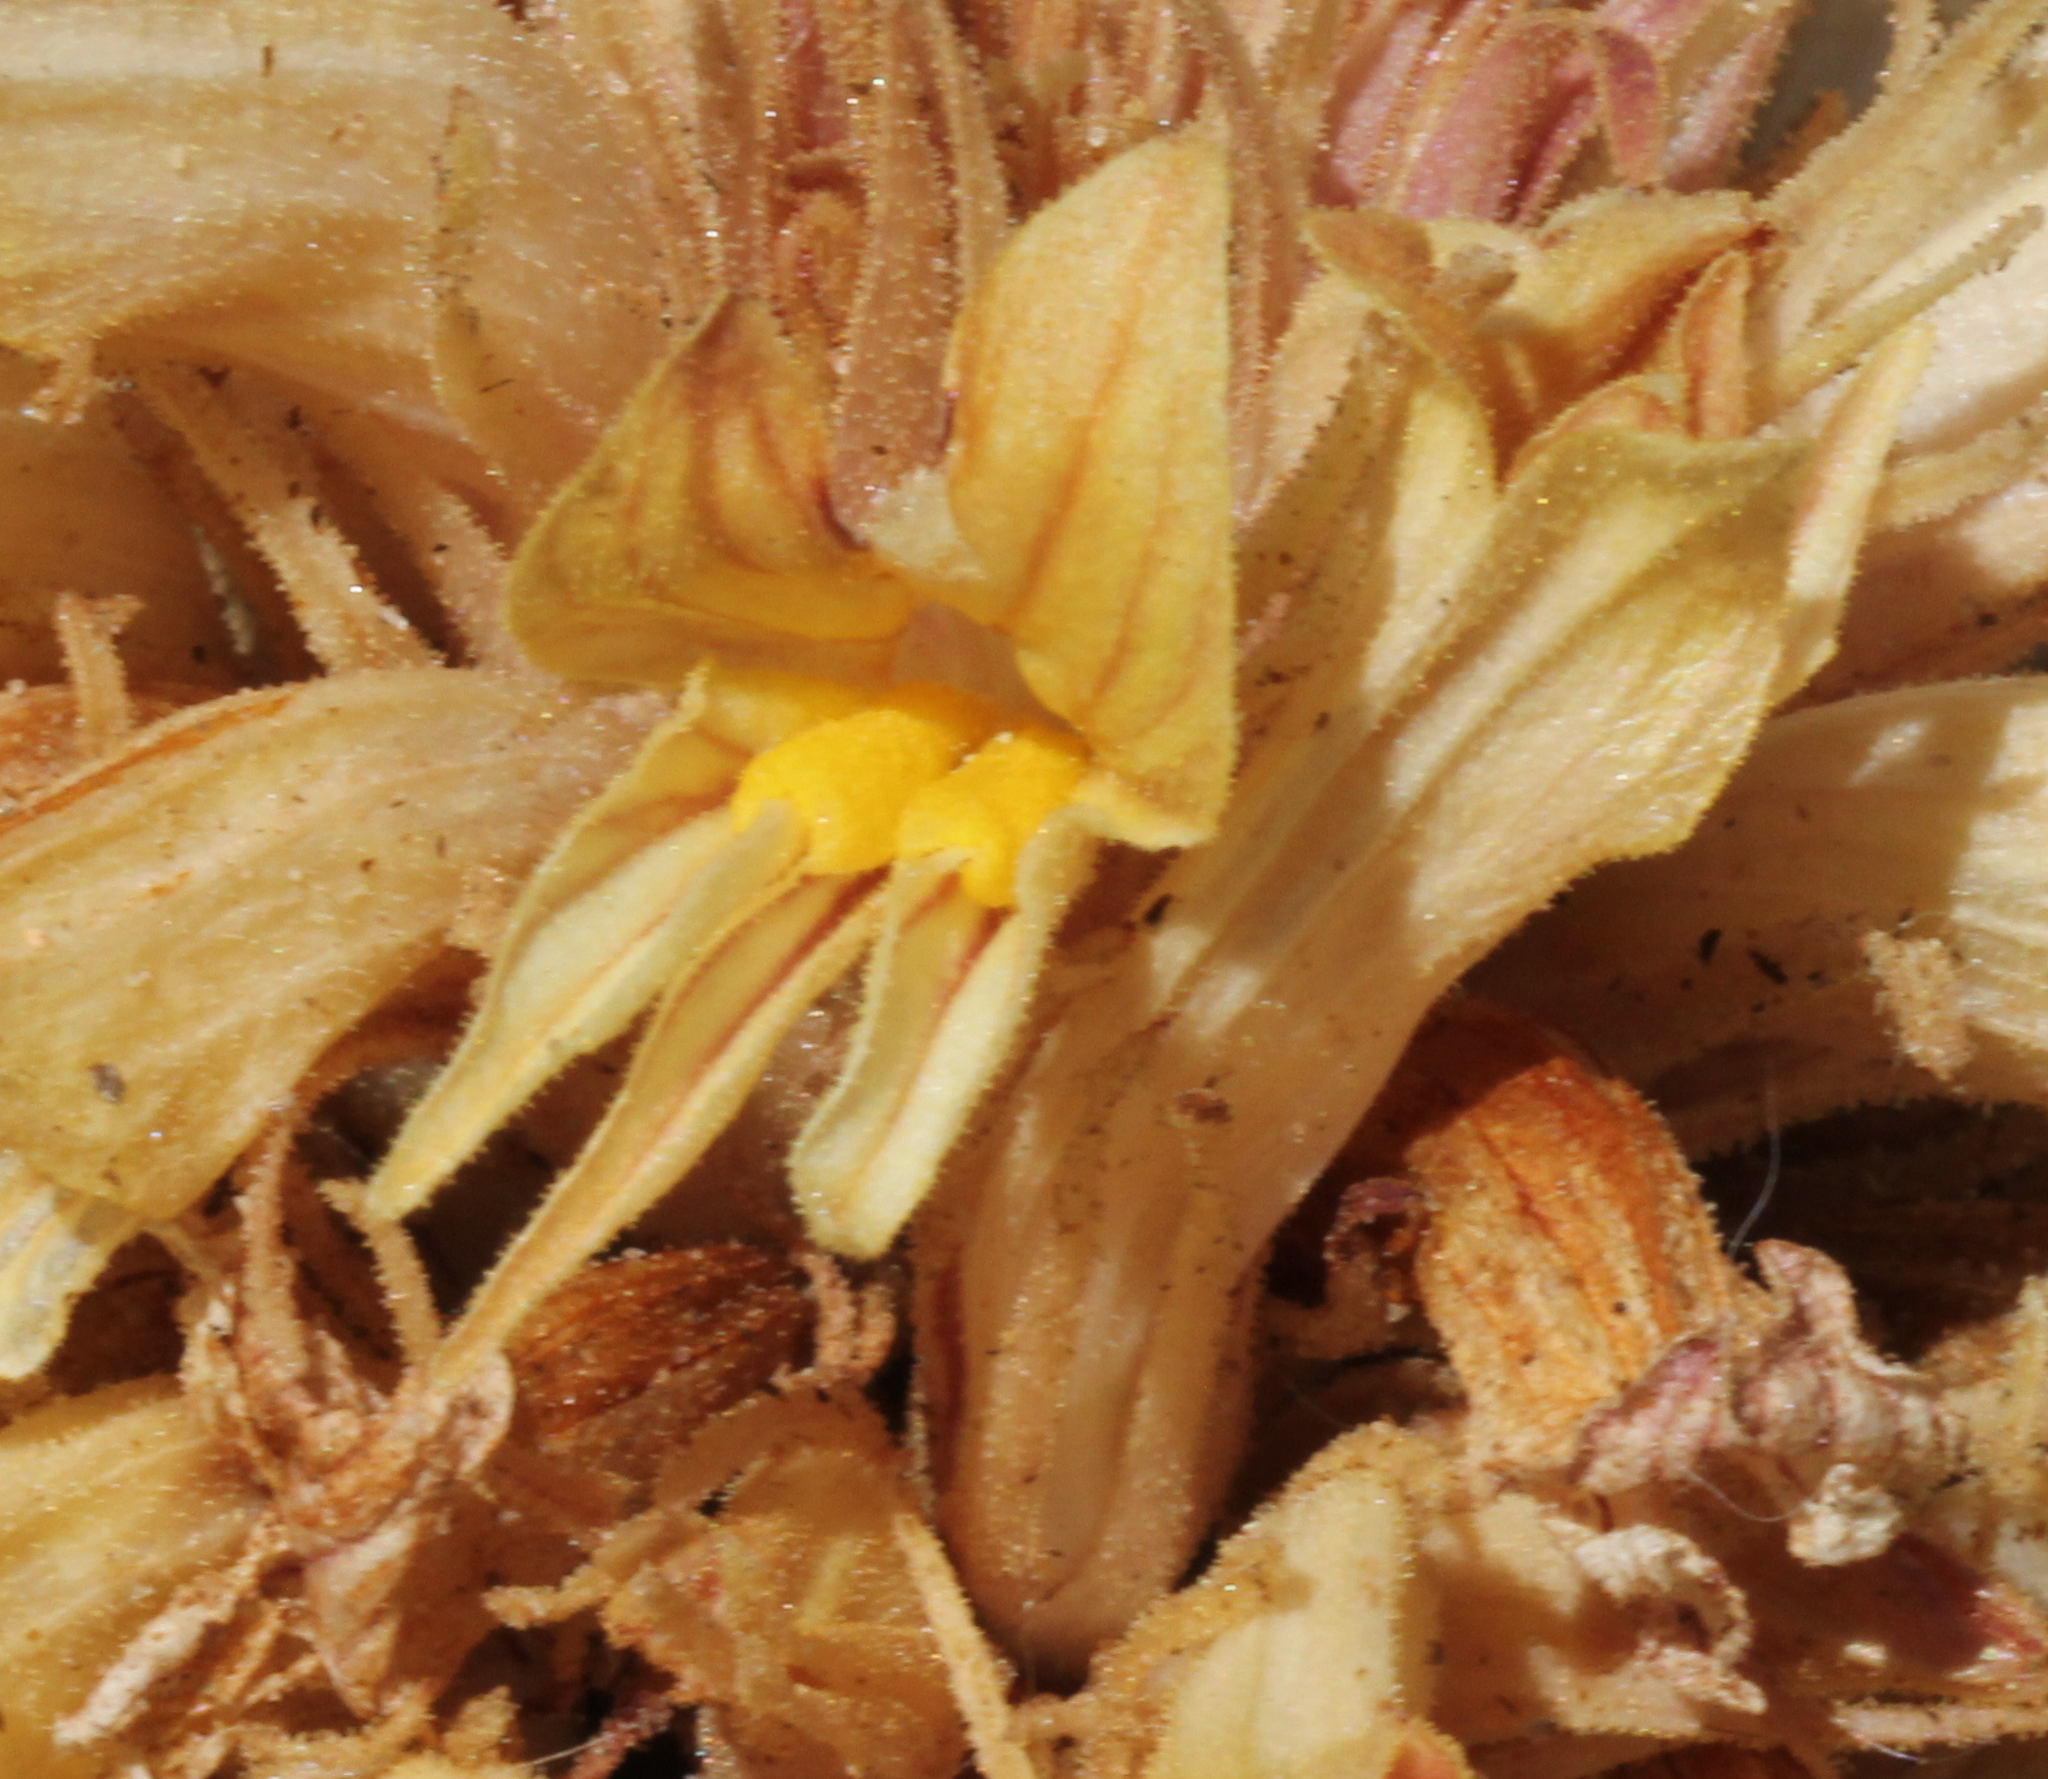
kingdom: Plantae
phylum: Tracheophyta
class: Magnoliopsida
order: Lamiales
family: Orobanchaceae
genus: Aphyllon
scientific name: Aphyllon californicum
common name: California broomrape
